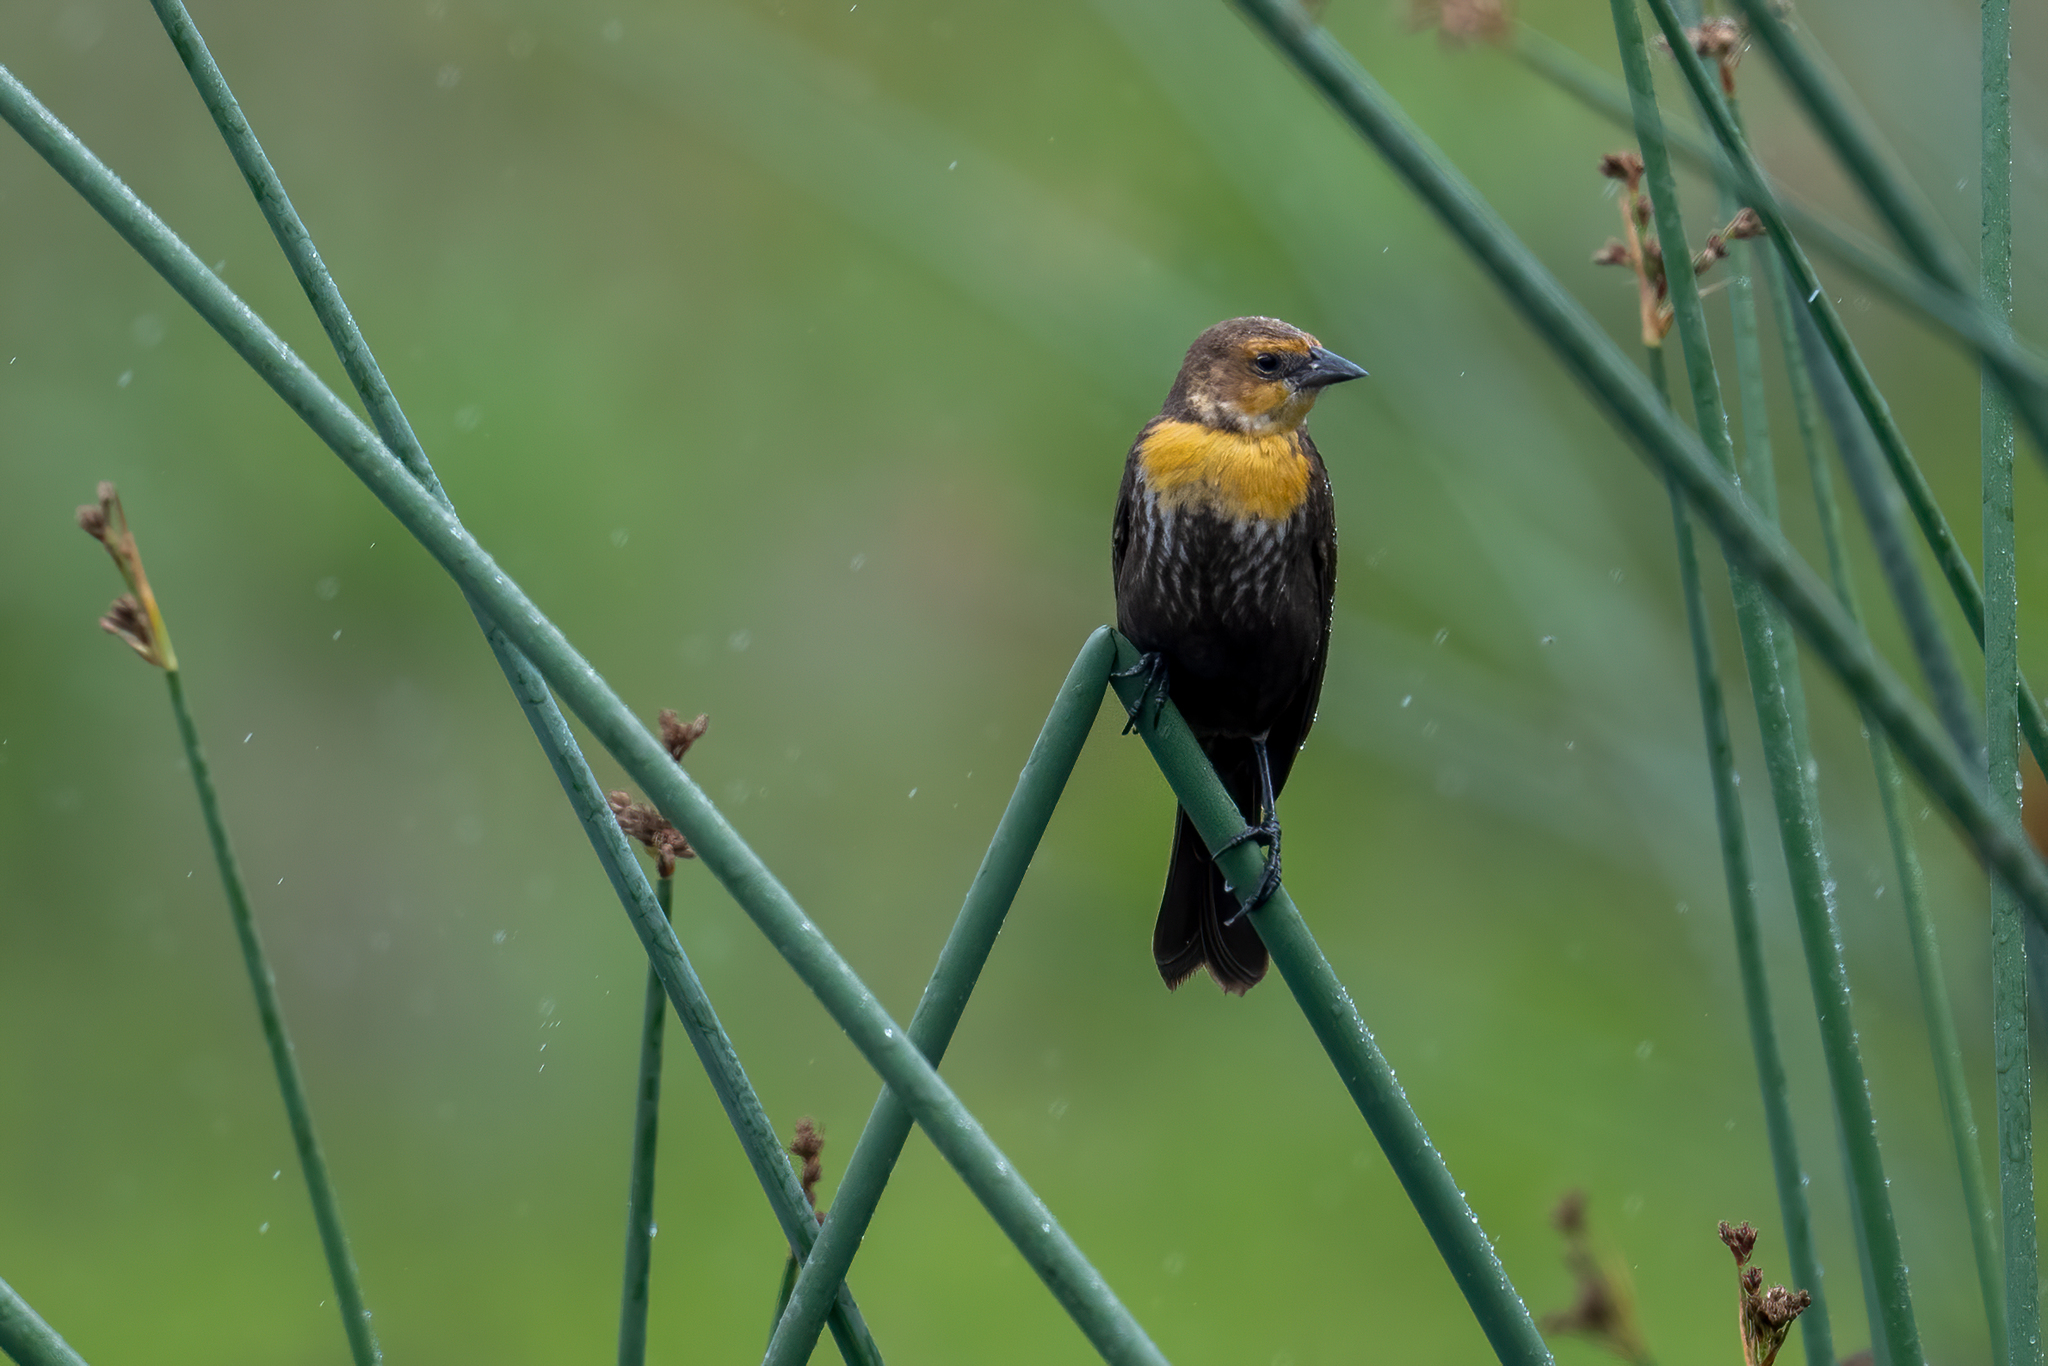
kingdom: Animalia
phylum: Chordata
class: Aves
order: Passeriformes
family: Icteridae
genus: Xanthocephalus
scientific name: Xanthocephalus xanthocephalus
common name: Yellow-headed blackbird
